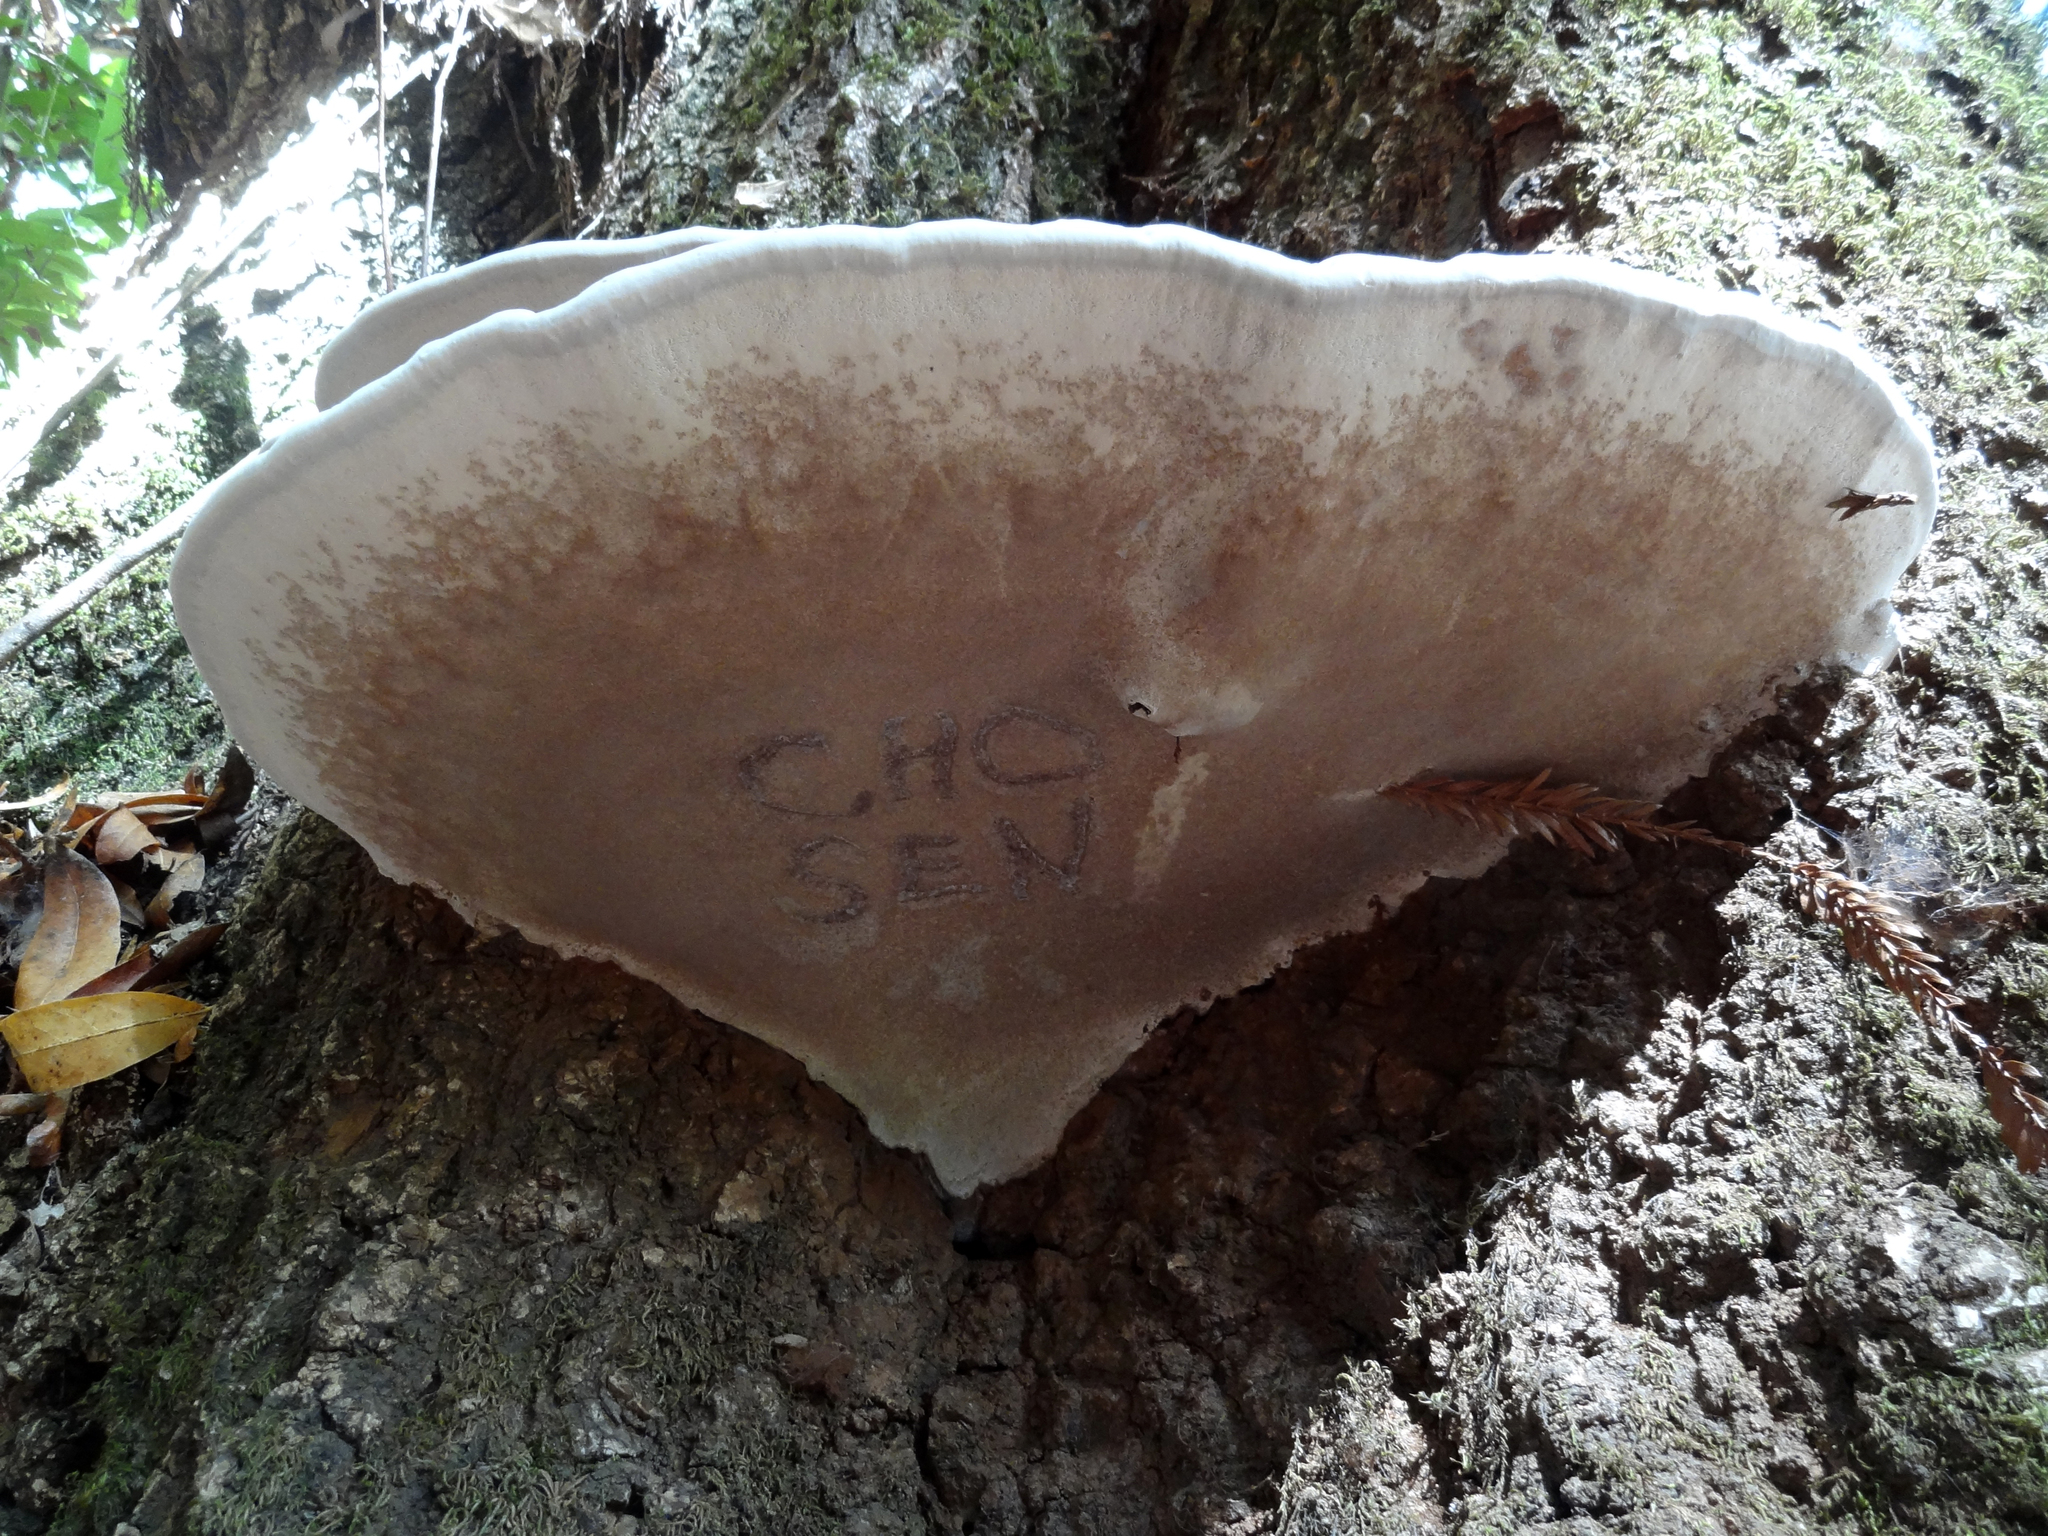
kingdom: Fungi
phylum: Basidiomycota
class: Agaricomycetes
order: Polyporales
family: Polyporaceae
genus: Ganoderma
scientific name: Ganoderma applanatum
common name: Artist's bracket
